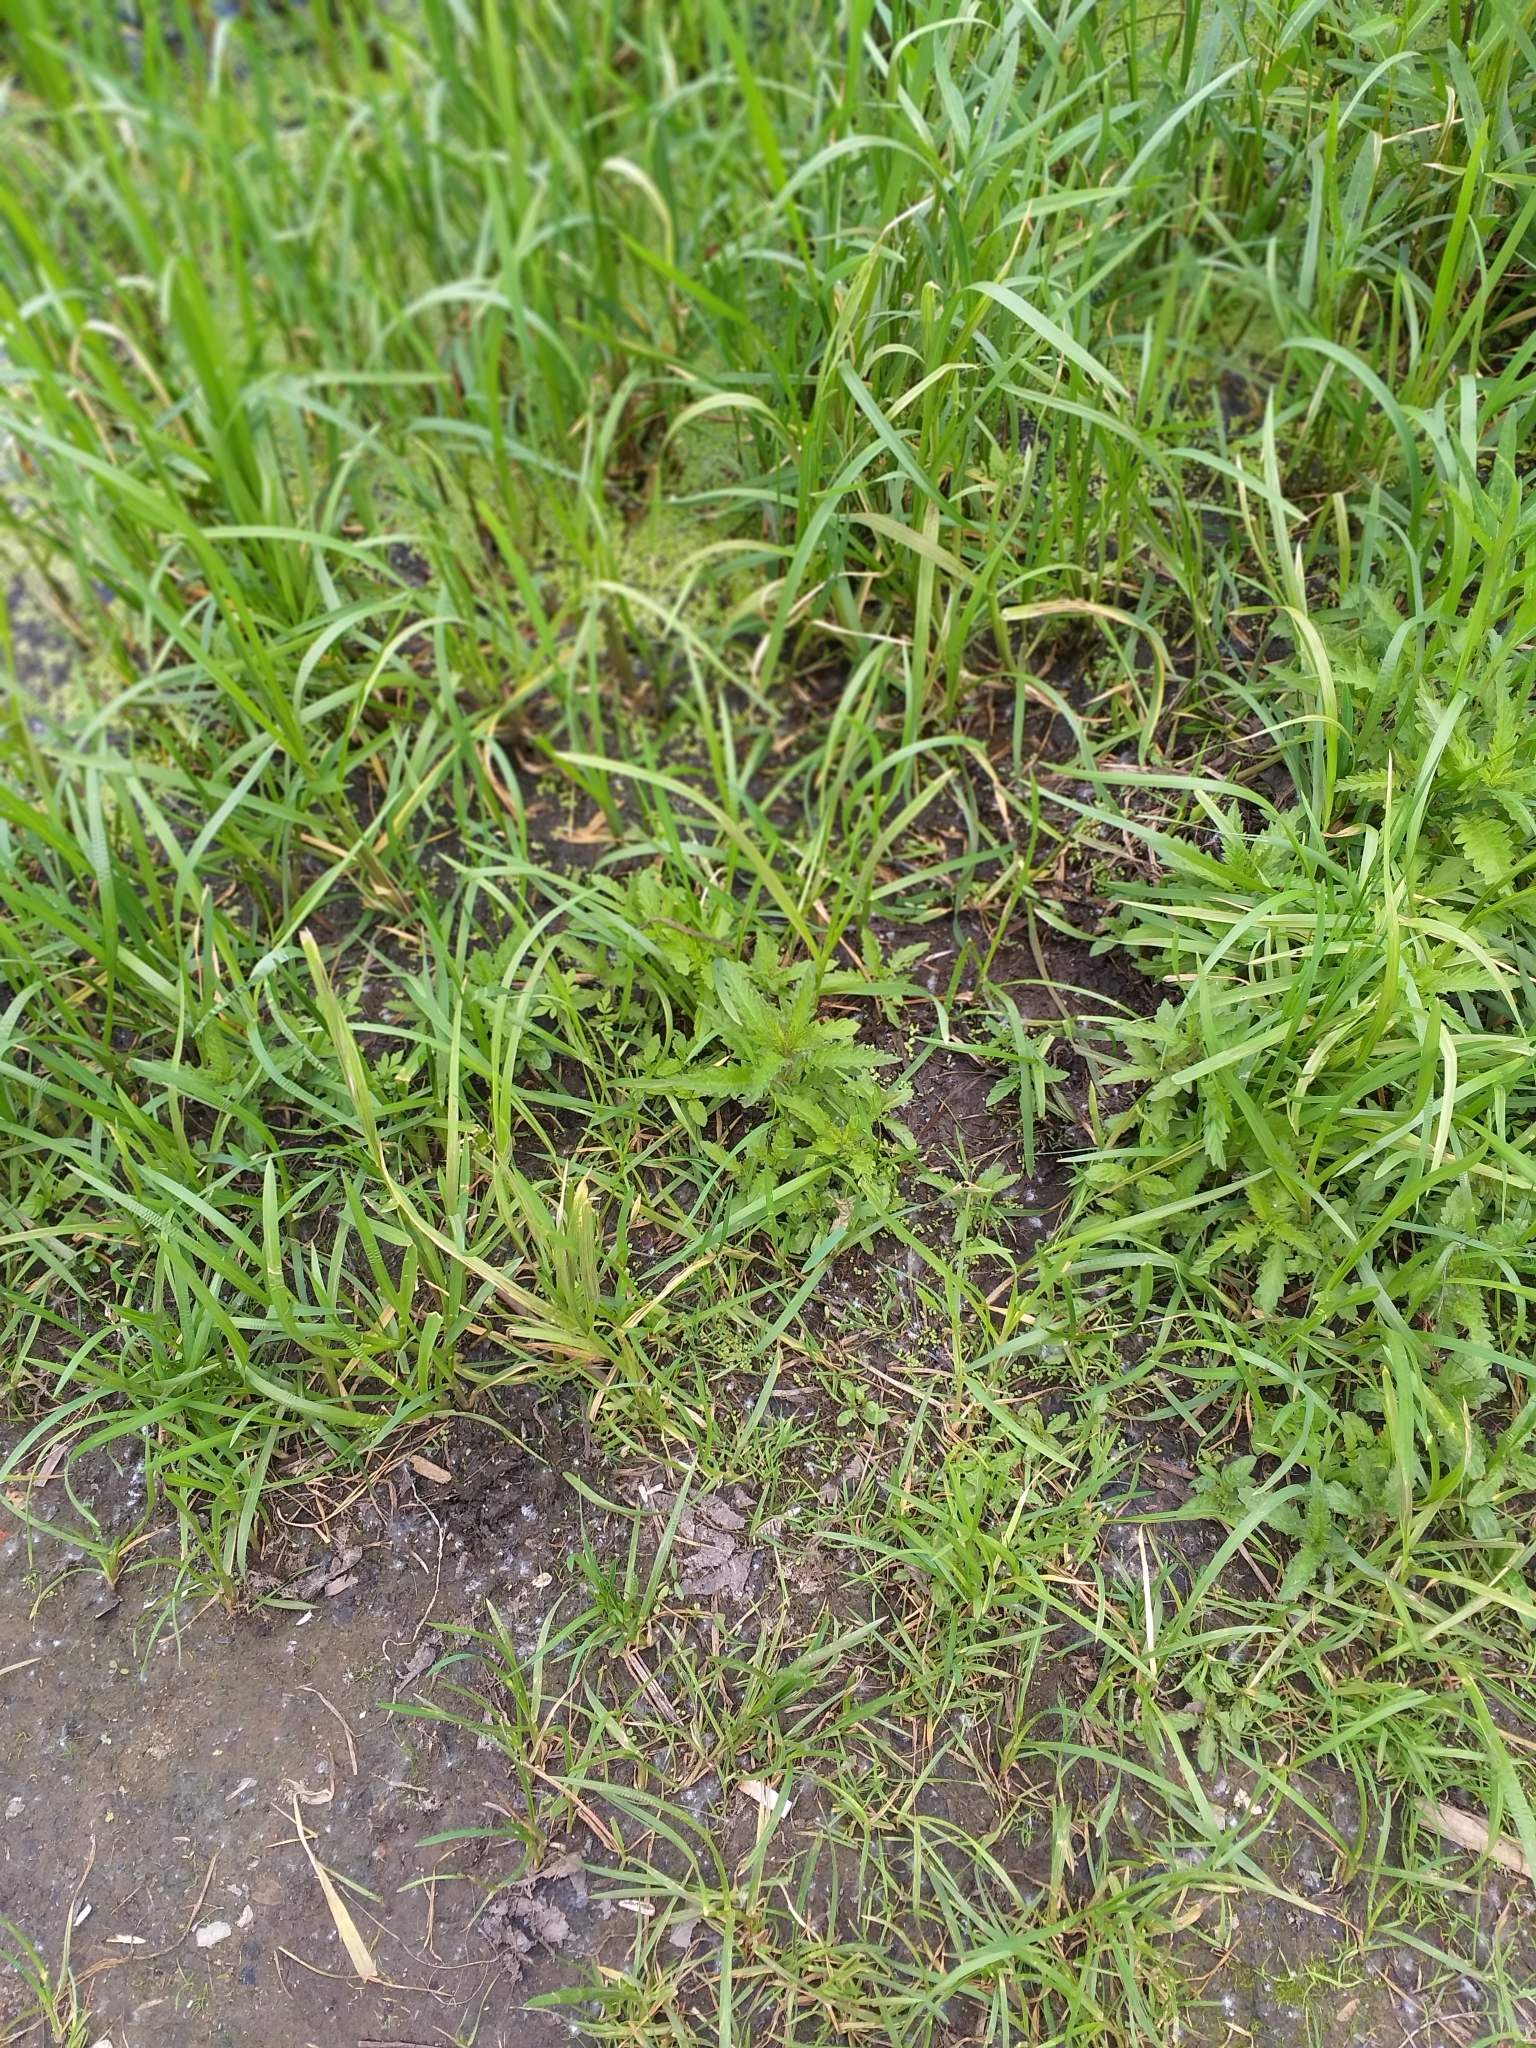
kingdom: Plantae
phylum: Tracheophyta
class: Magnoliopsida
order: Lamiales
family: Lamiaceae
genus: Lycopus
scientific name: Lycopus europaeus
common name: European bugleweed
